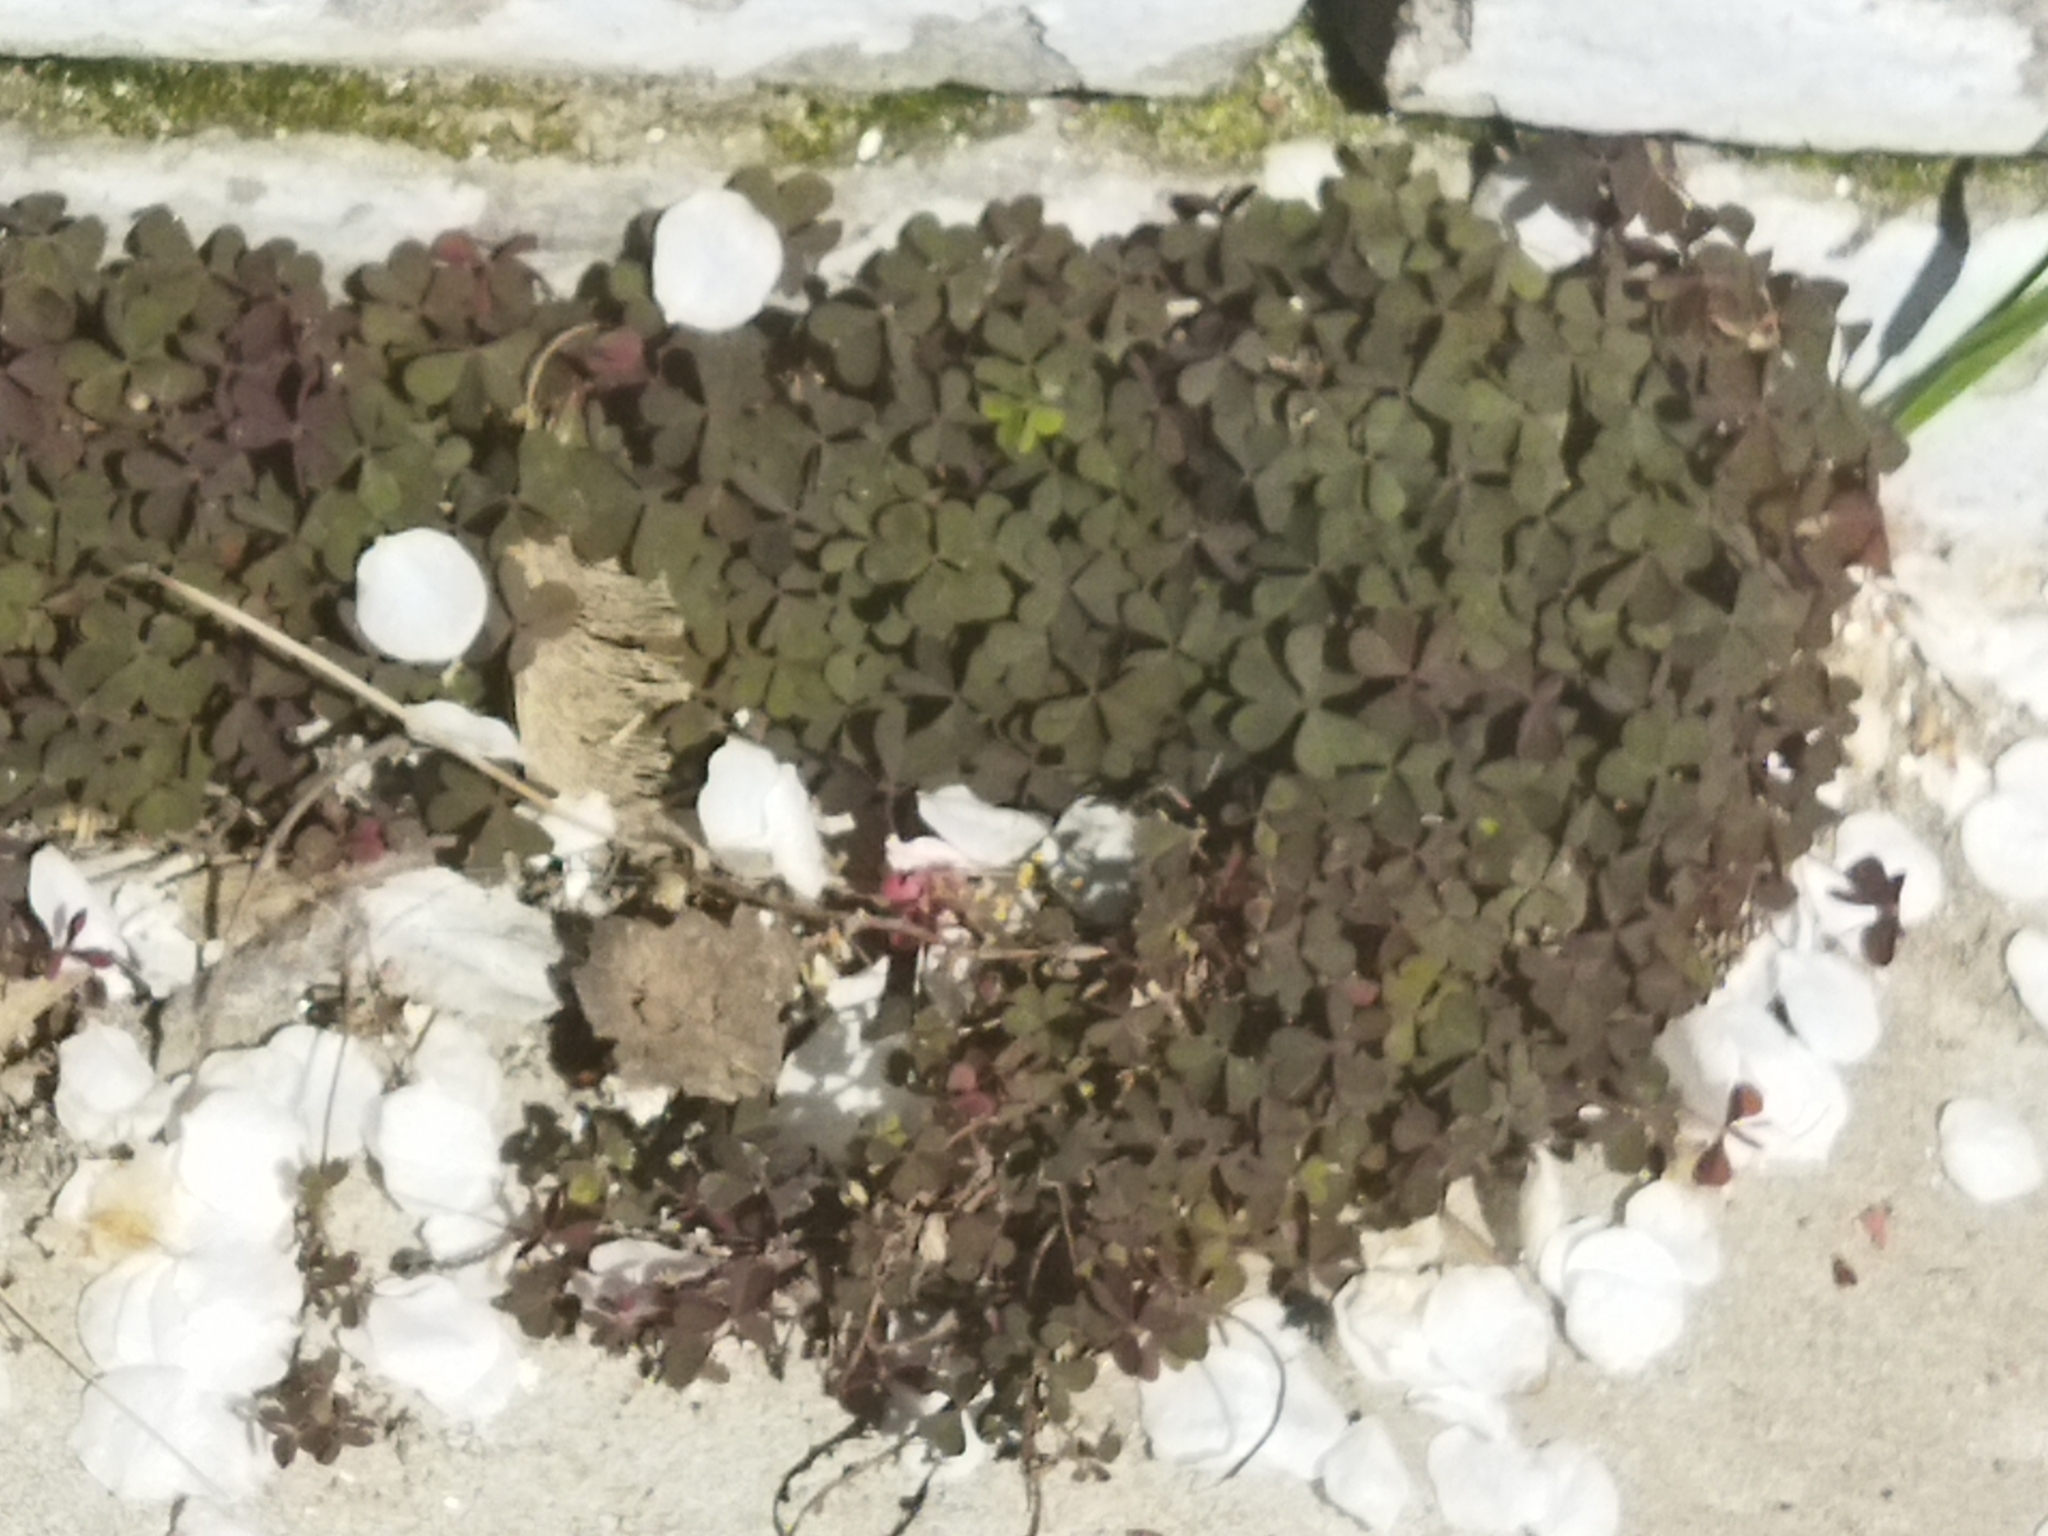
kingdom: Plantae
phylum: Tracheophyta
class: Magnoliopsida
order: Oxalidales
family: Oxalidaceae
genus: Oxalis
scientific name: Oxalis corniculata
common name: Procumbent yellow-sorrel
